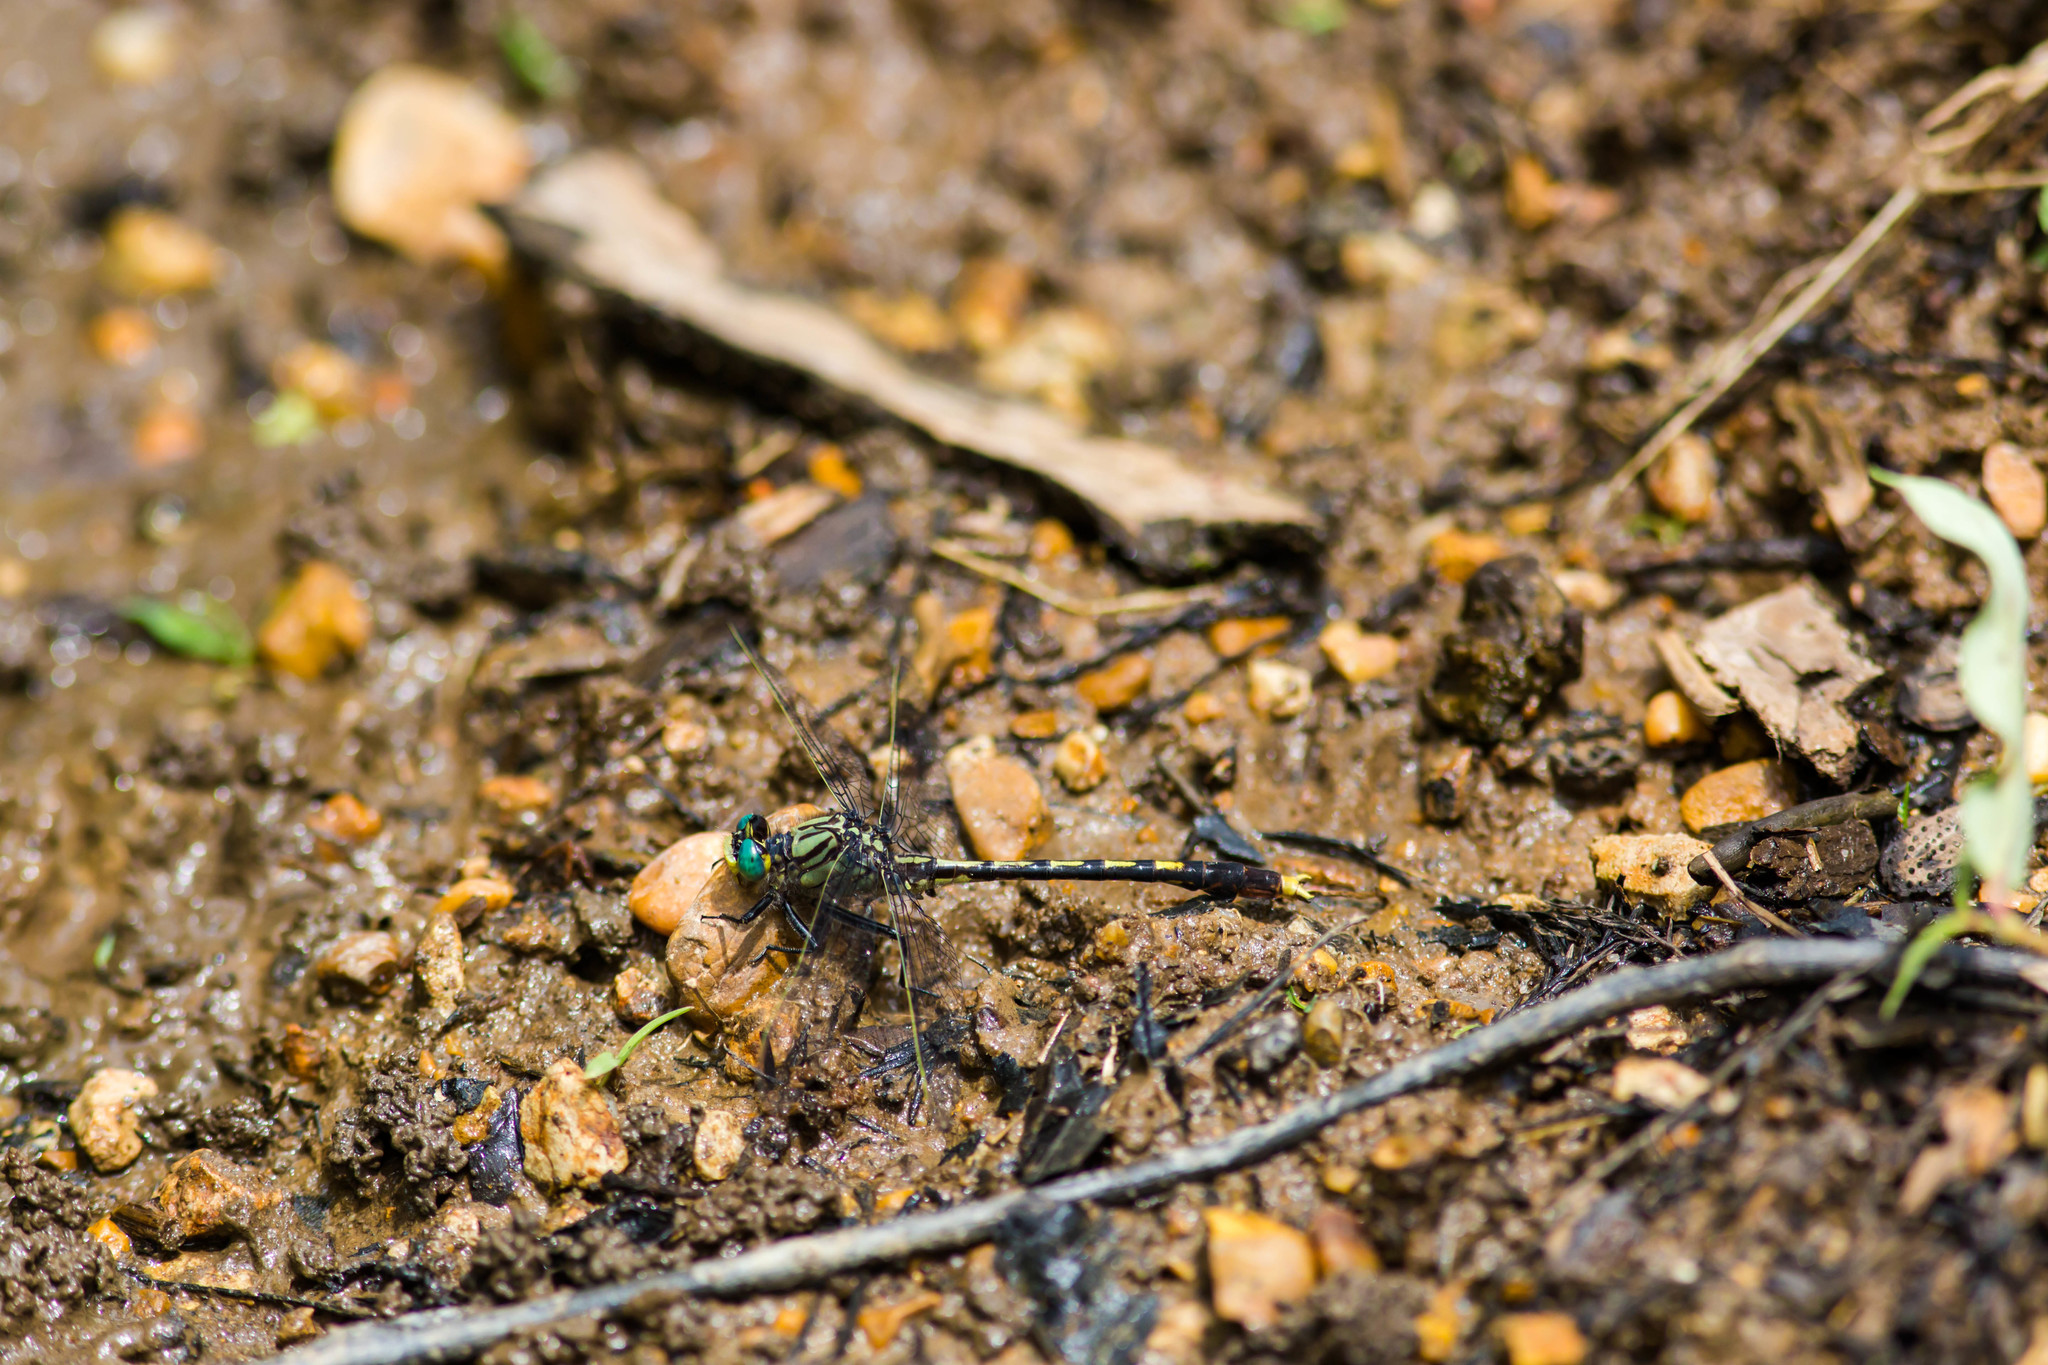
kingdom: Animalia
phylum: Arthropoda
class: Insecta
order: Odonata
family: Gomphidae
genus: Arigomphus
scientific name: Arigomphus villosipes
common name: Unicorn clubtail
